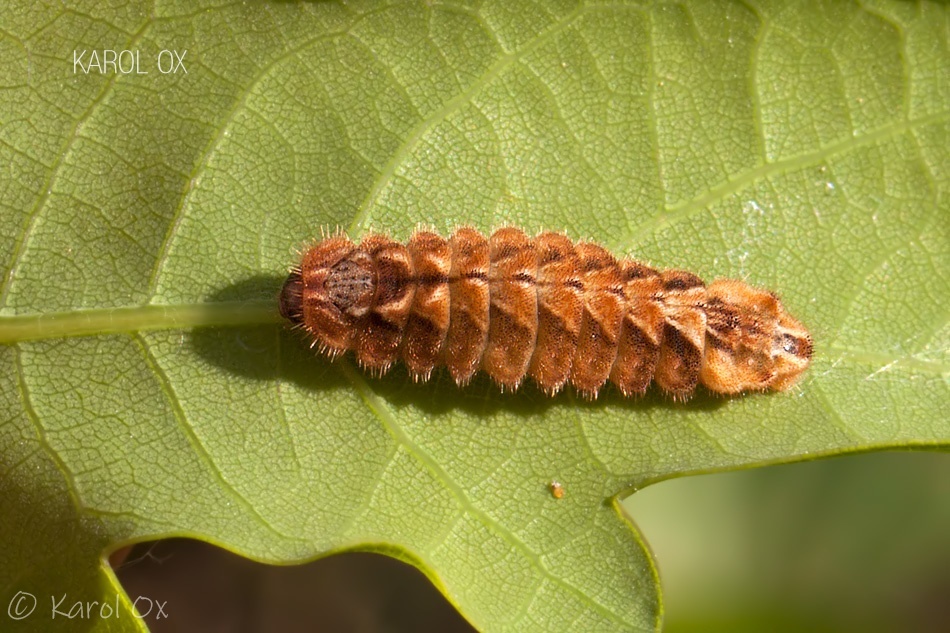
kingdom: Animalia
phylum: Arthropoda
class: Insecta
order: Lepidoptera
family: Lycaenidae
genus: Quercusia
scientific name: Quercusia quercus
